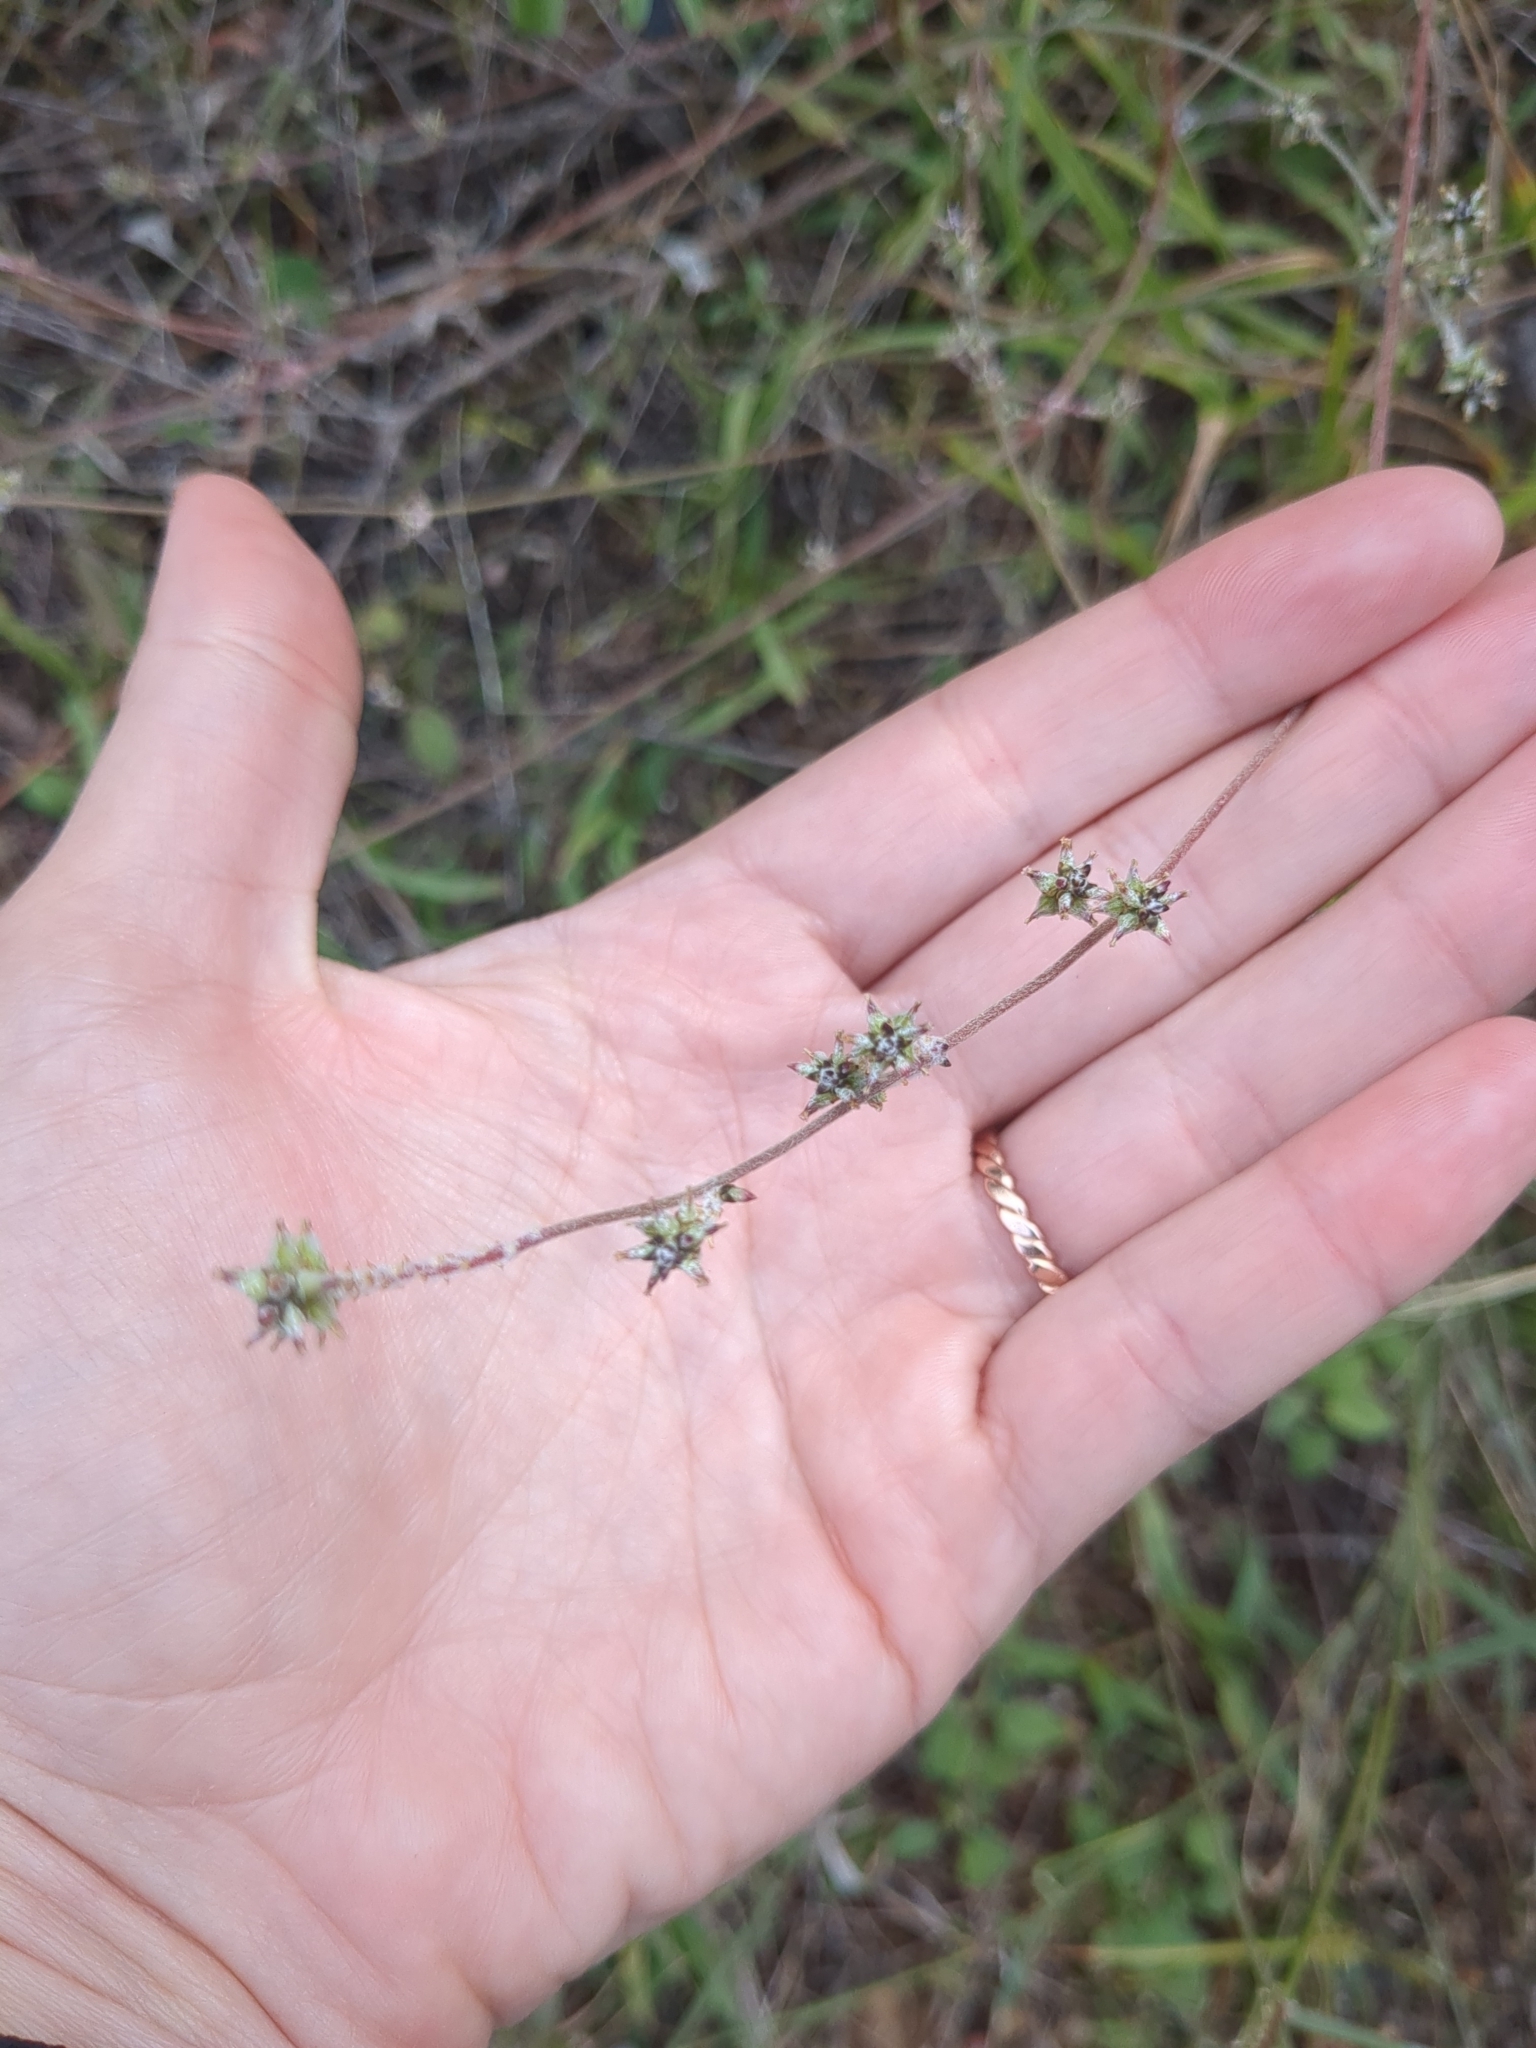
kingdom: Plantae
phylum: Tracheophyta
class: Magnoliopsida
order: Caryophyllales
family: Amaranthaceae
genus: Froelichia
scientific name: Froelichia gracilis
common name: Slender cottonweed
